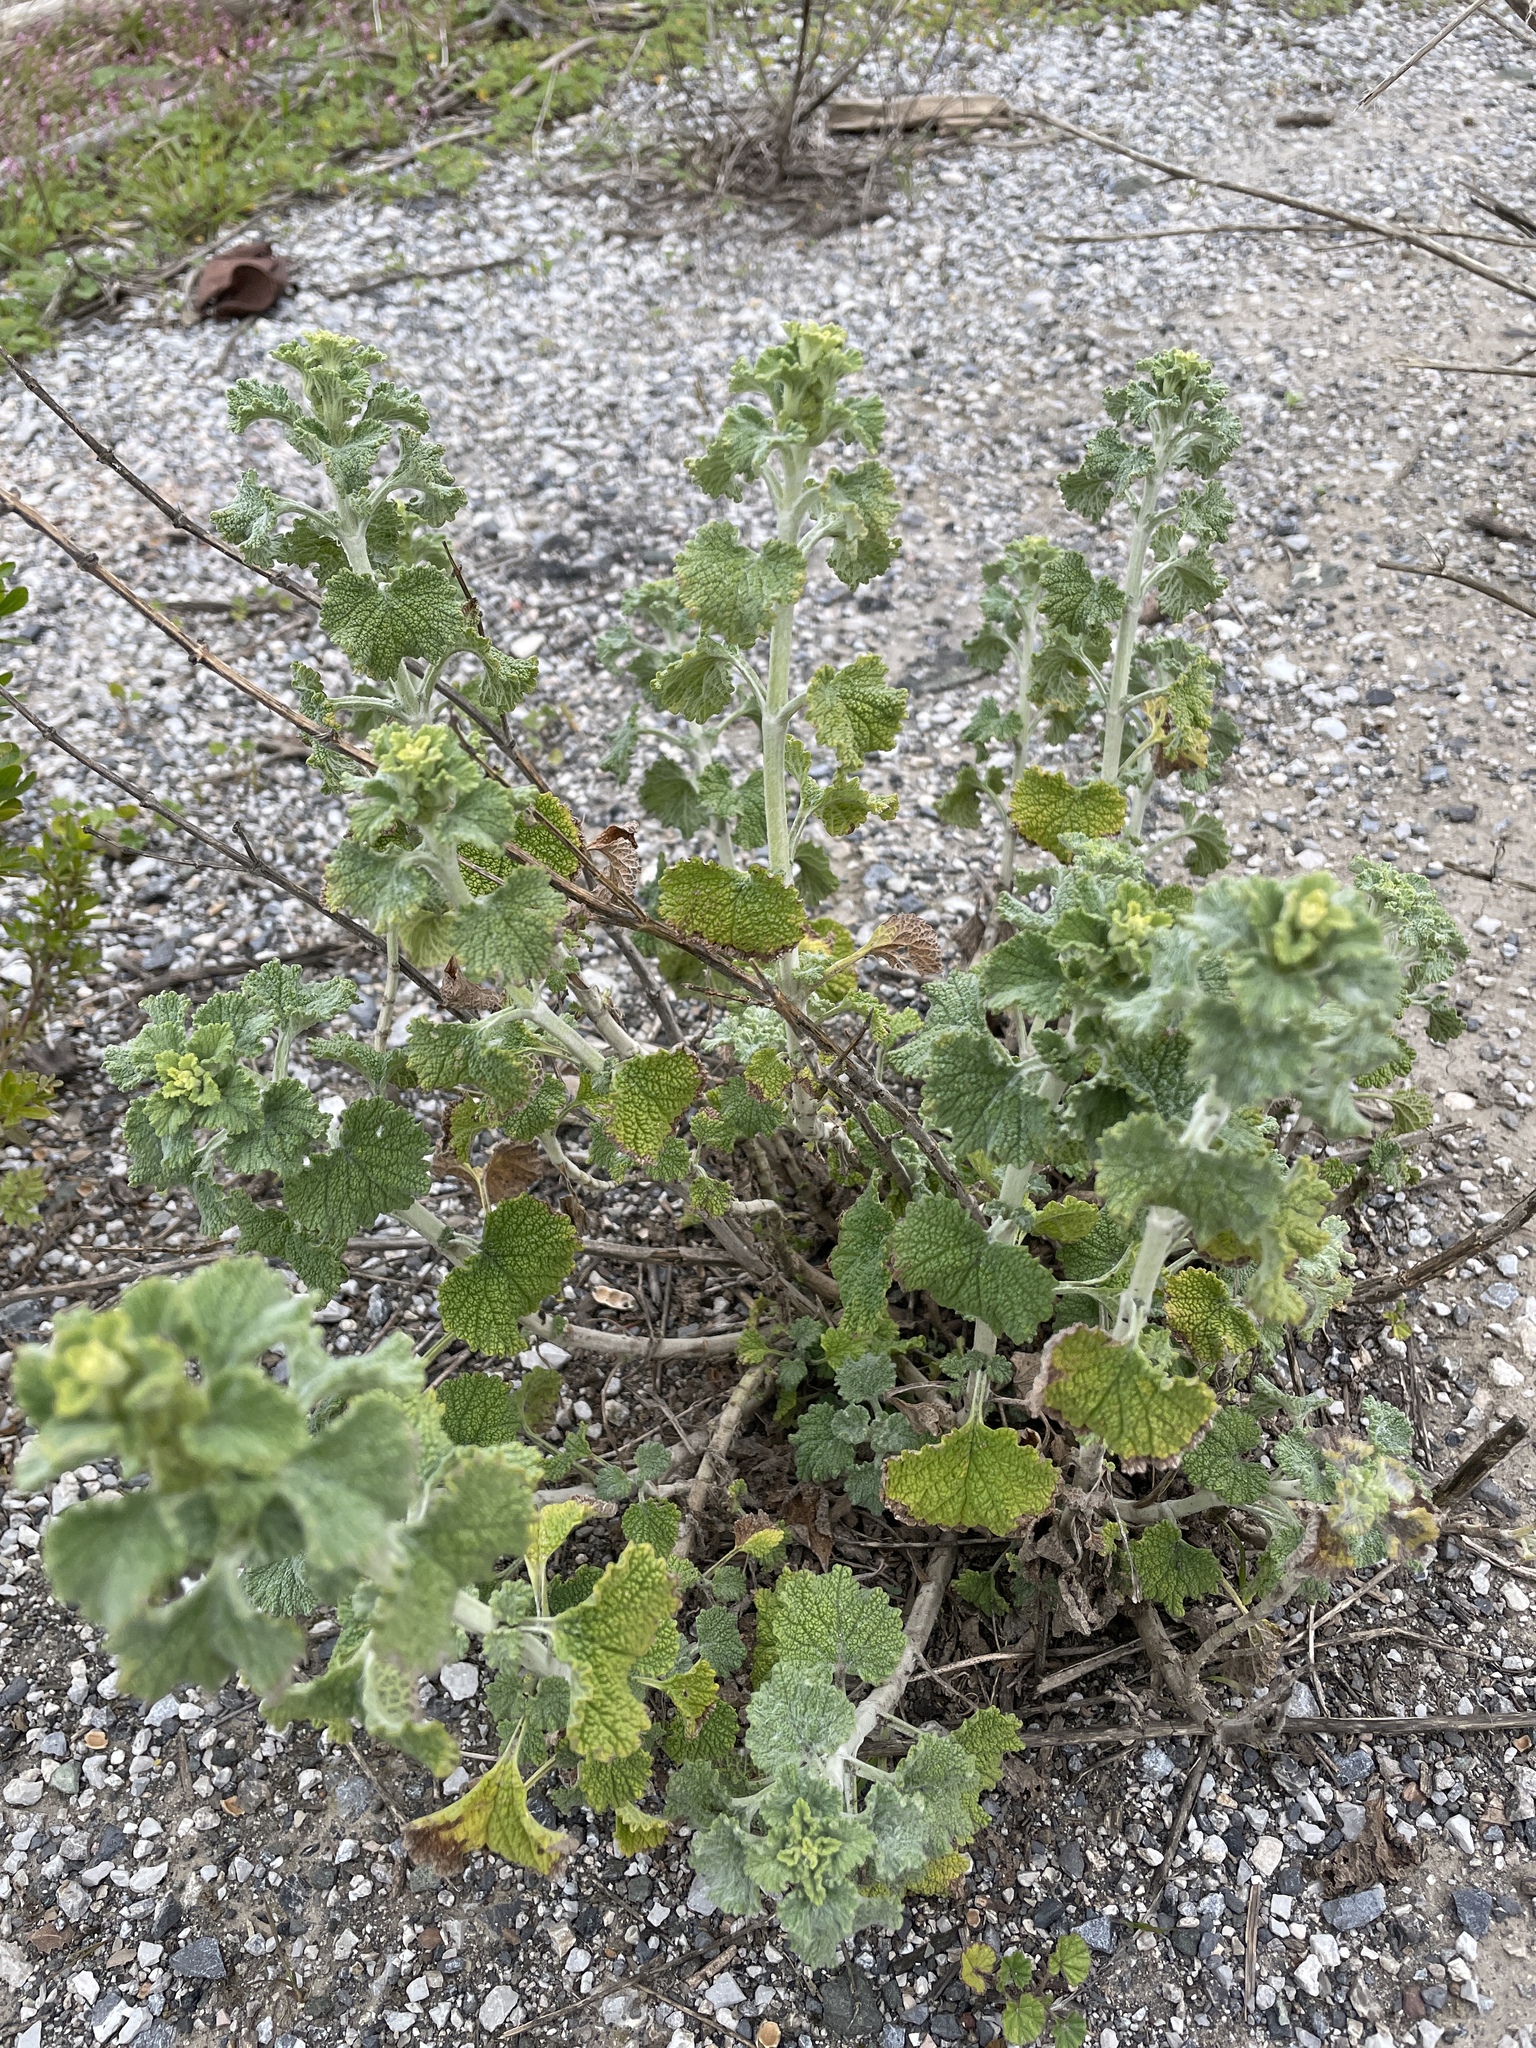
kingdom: Plantae
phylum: Tracheophyta
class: Magnoliopsida
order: Lamiales
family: Lamiaceae
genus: Marrubium
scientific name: Marrubium vulgare
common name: Horehound
